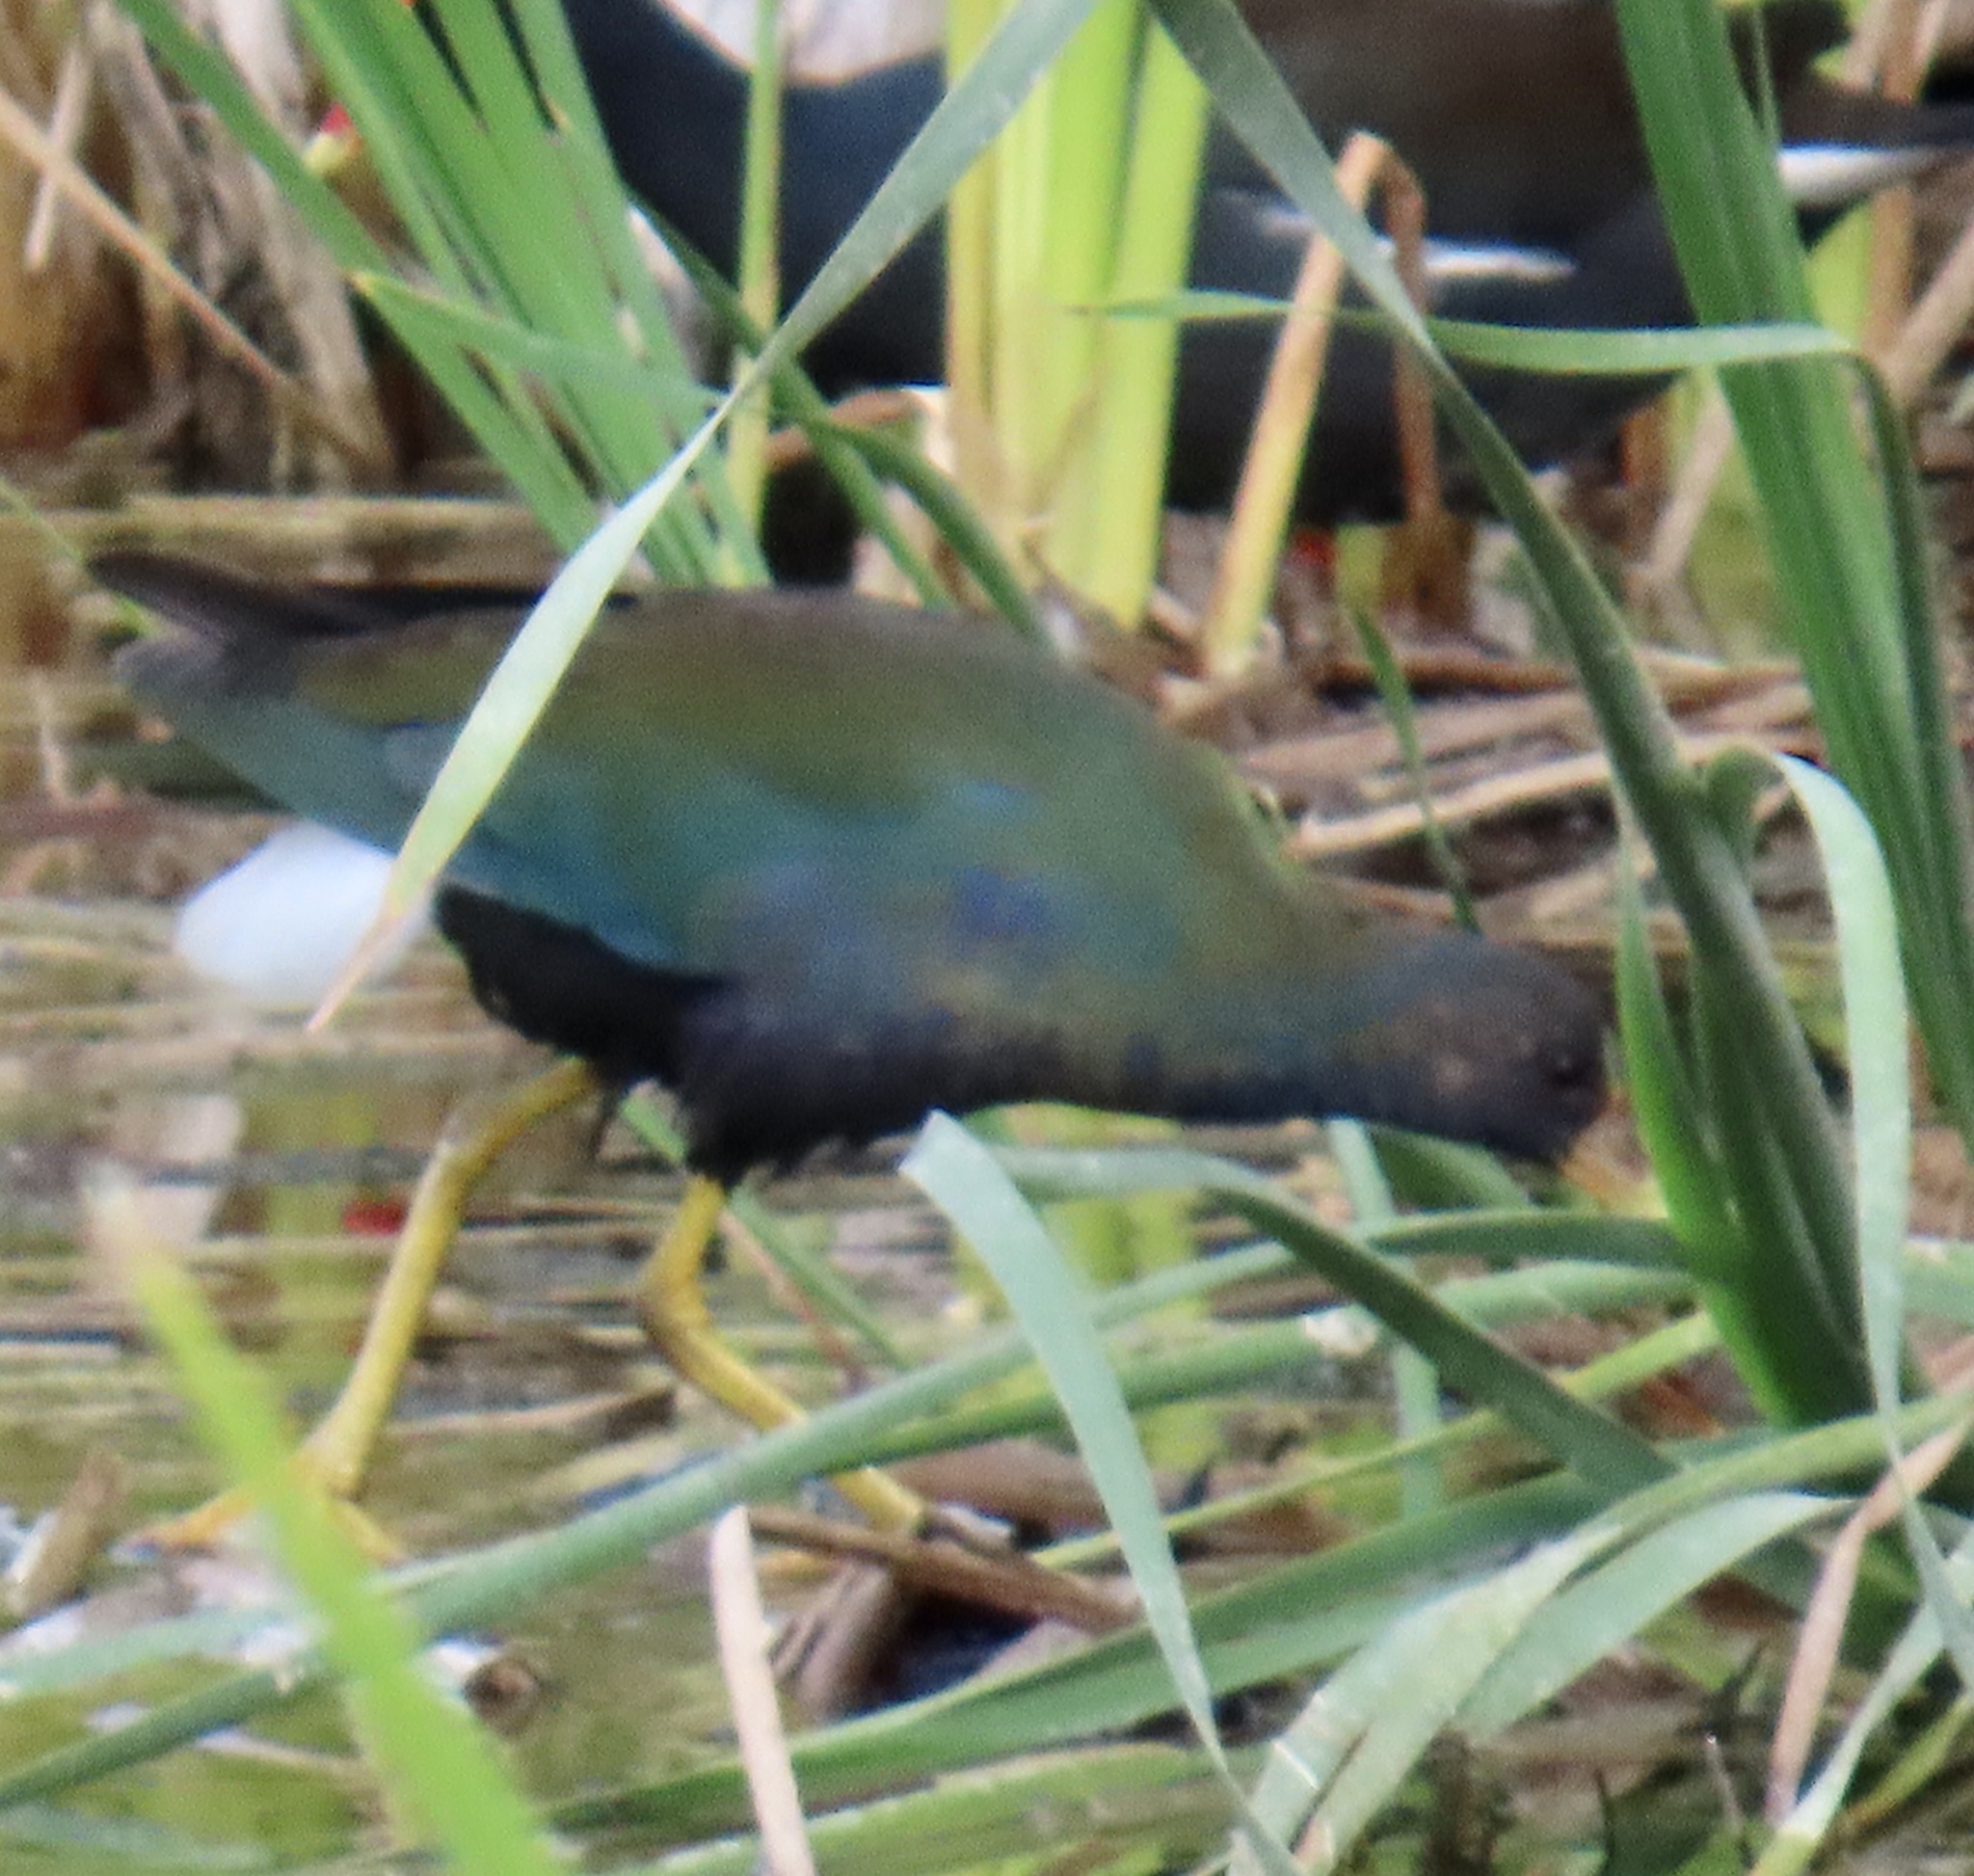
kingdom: Animalia
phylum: Chordata
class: Aves
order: Gruiformes
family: Rallidae
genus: Porphyrio
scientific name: Porphyrio martinica
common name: Purple gallinule
